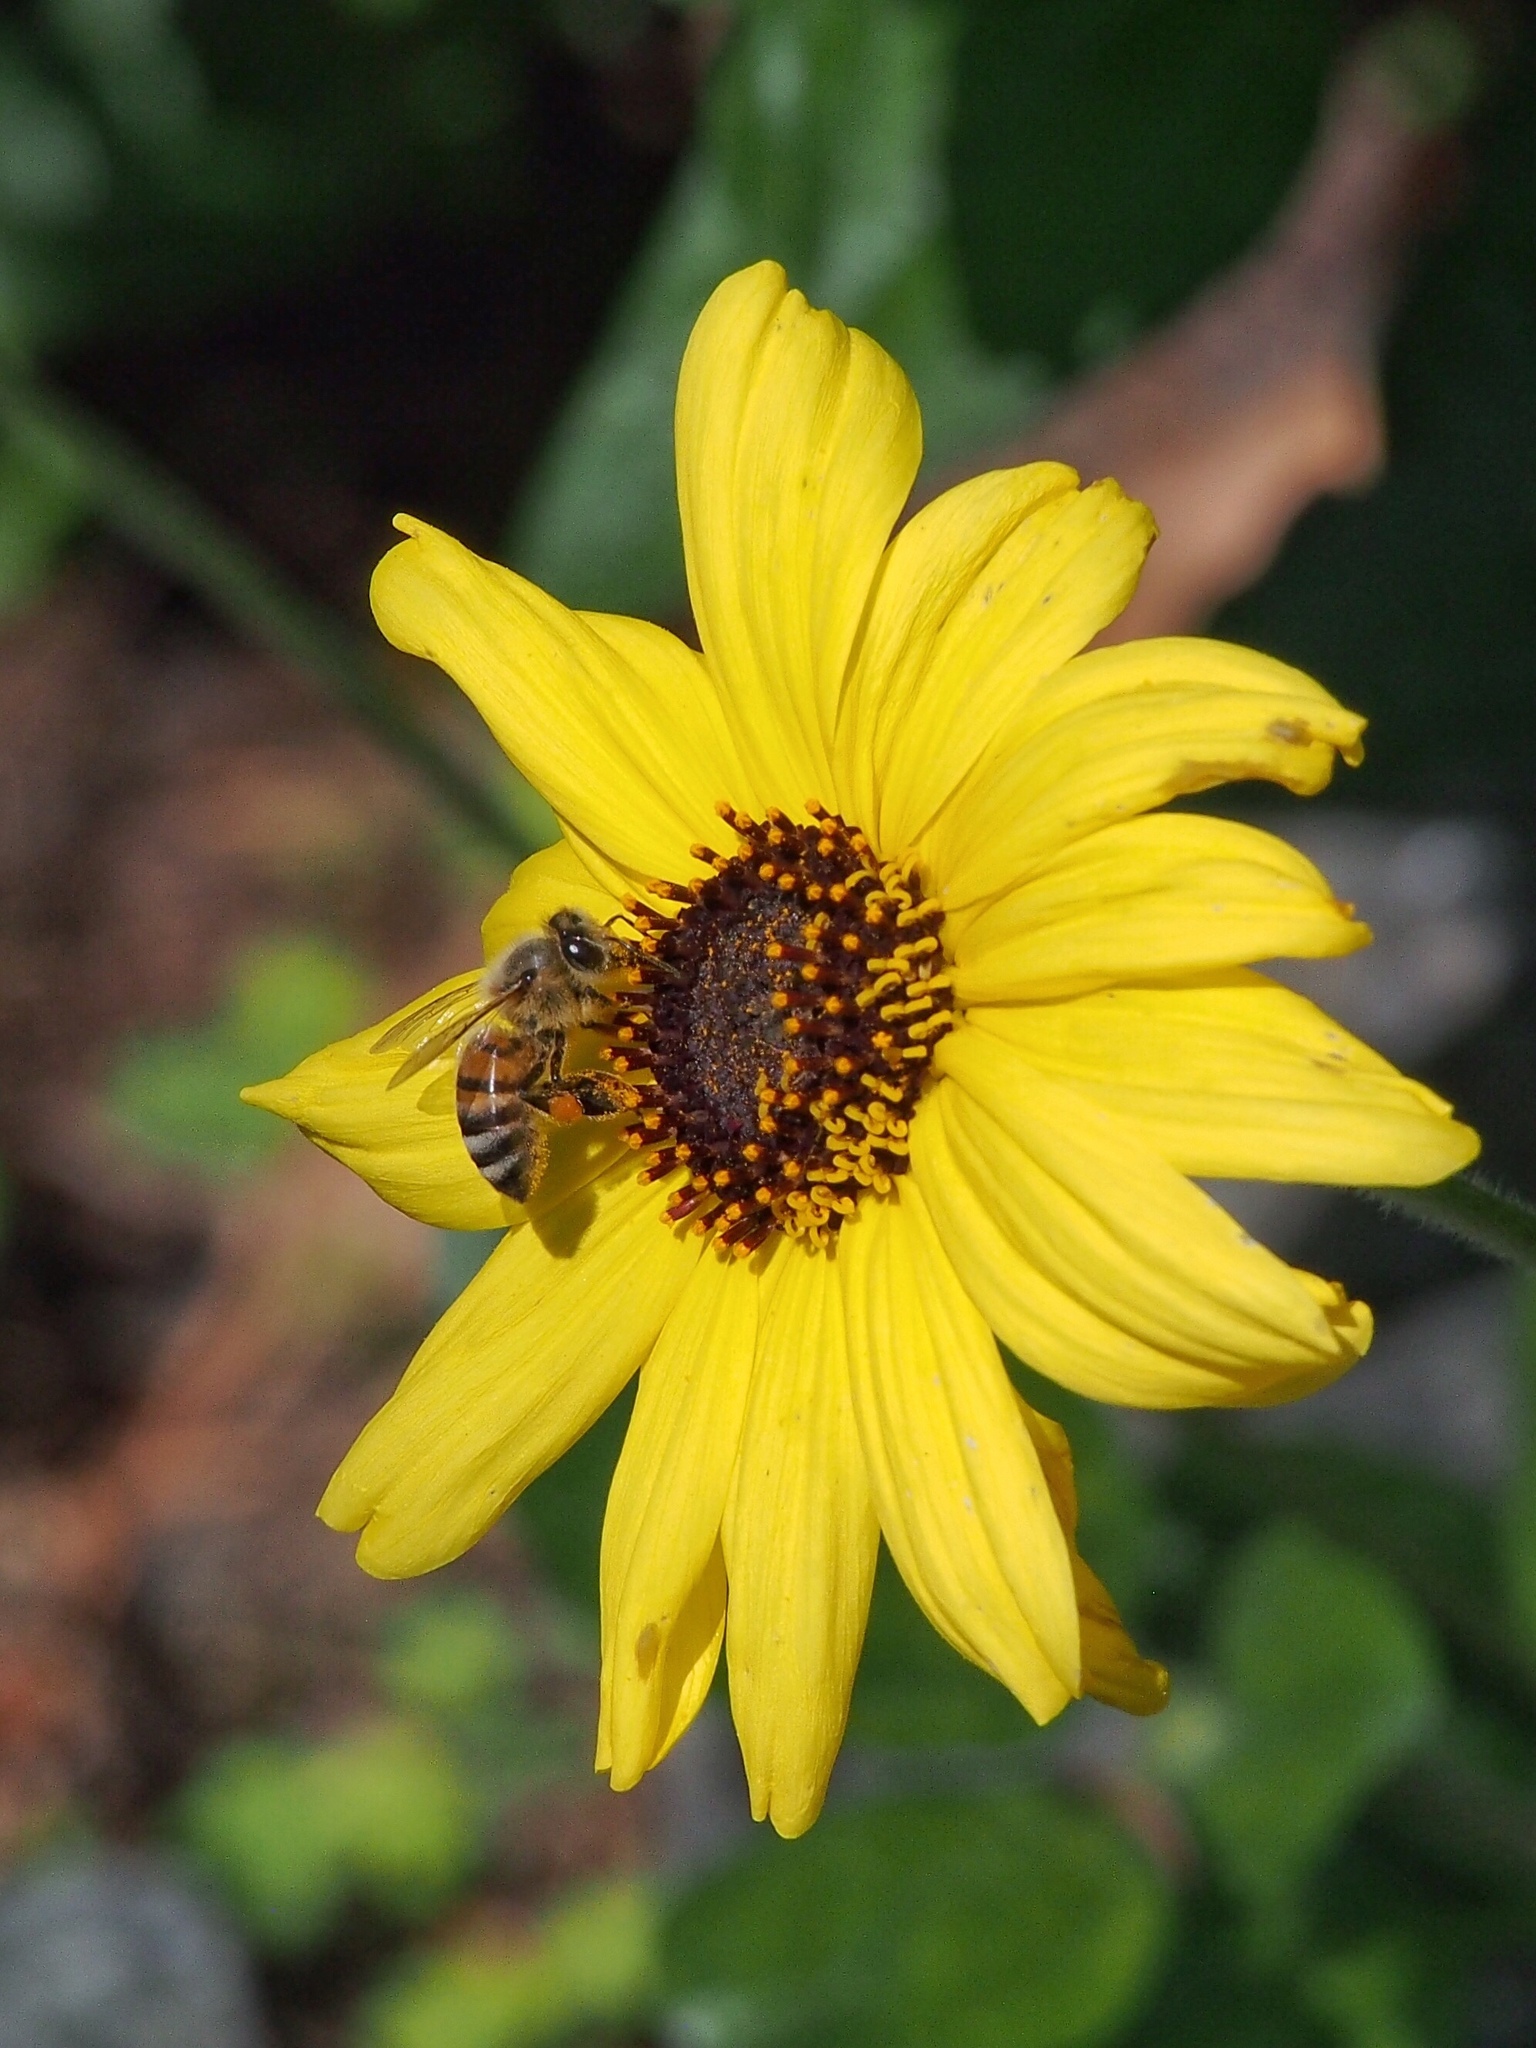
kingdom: Animalia
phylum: Arthropoda
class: Insecta
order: Hymenoptera
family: Apidae
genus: Apis
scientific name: Apis mellifera
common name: Honey bee
